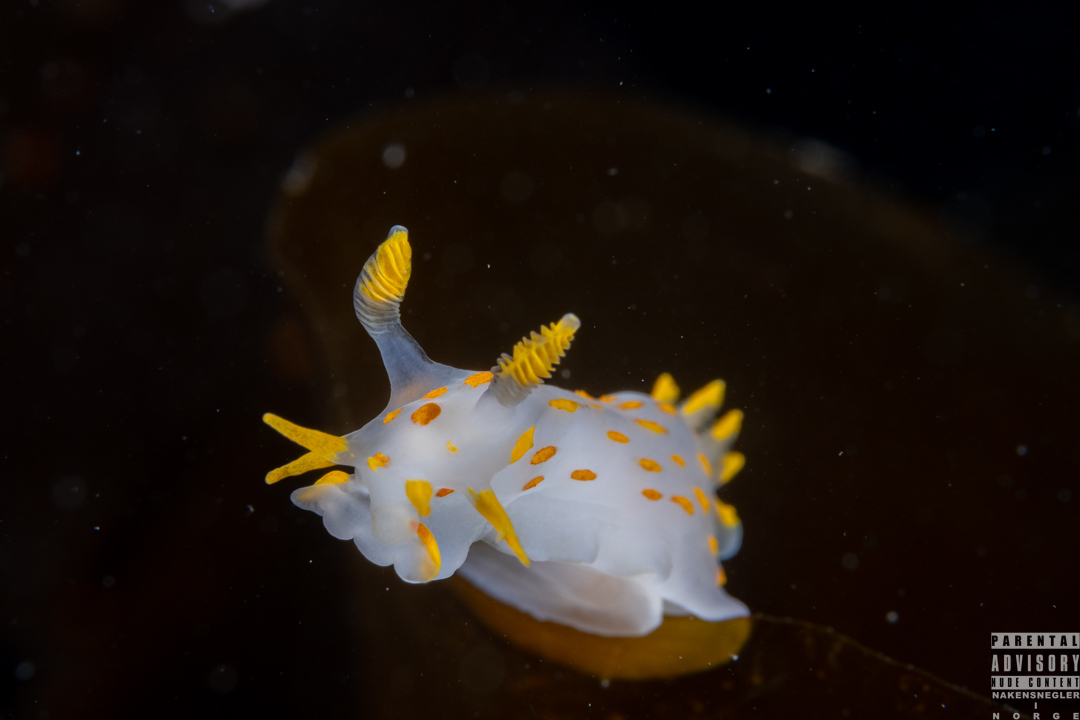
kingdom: Animalia
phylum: Mollusca
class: Gastropoda
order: Nudibranchia
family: Polyceridae
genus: Polycera
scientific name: Polycera quadrilineata
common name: Four-striped polycera
